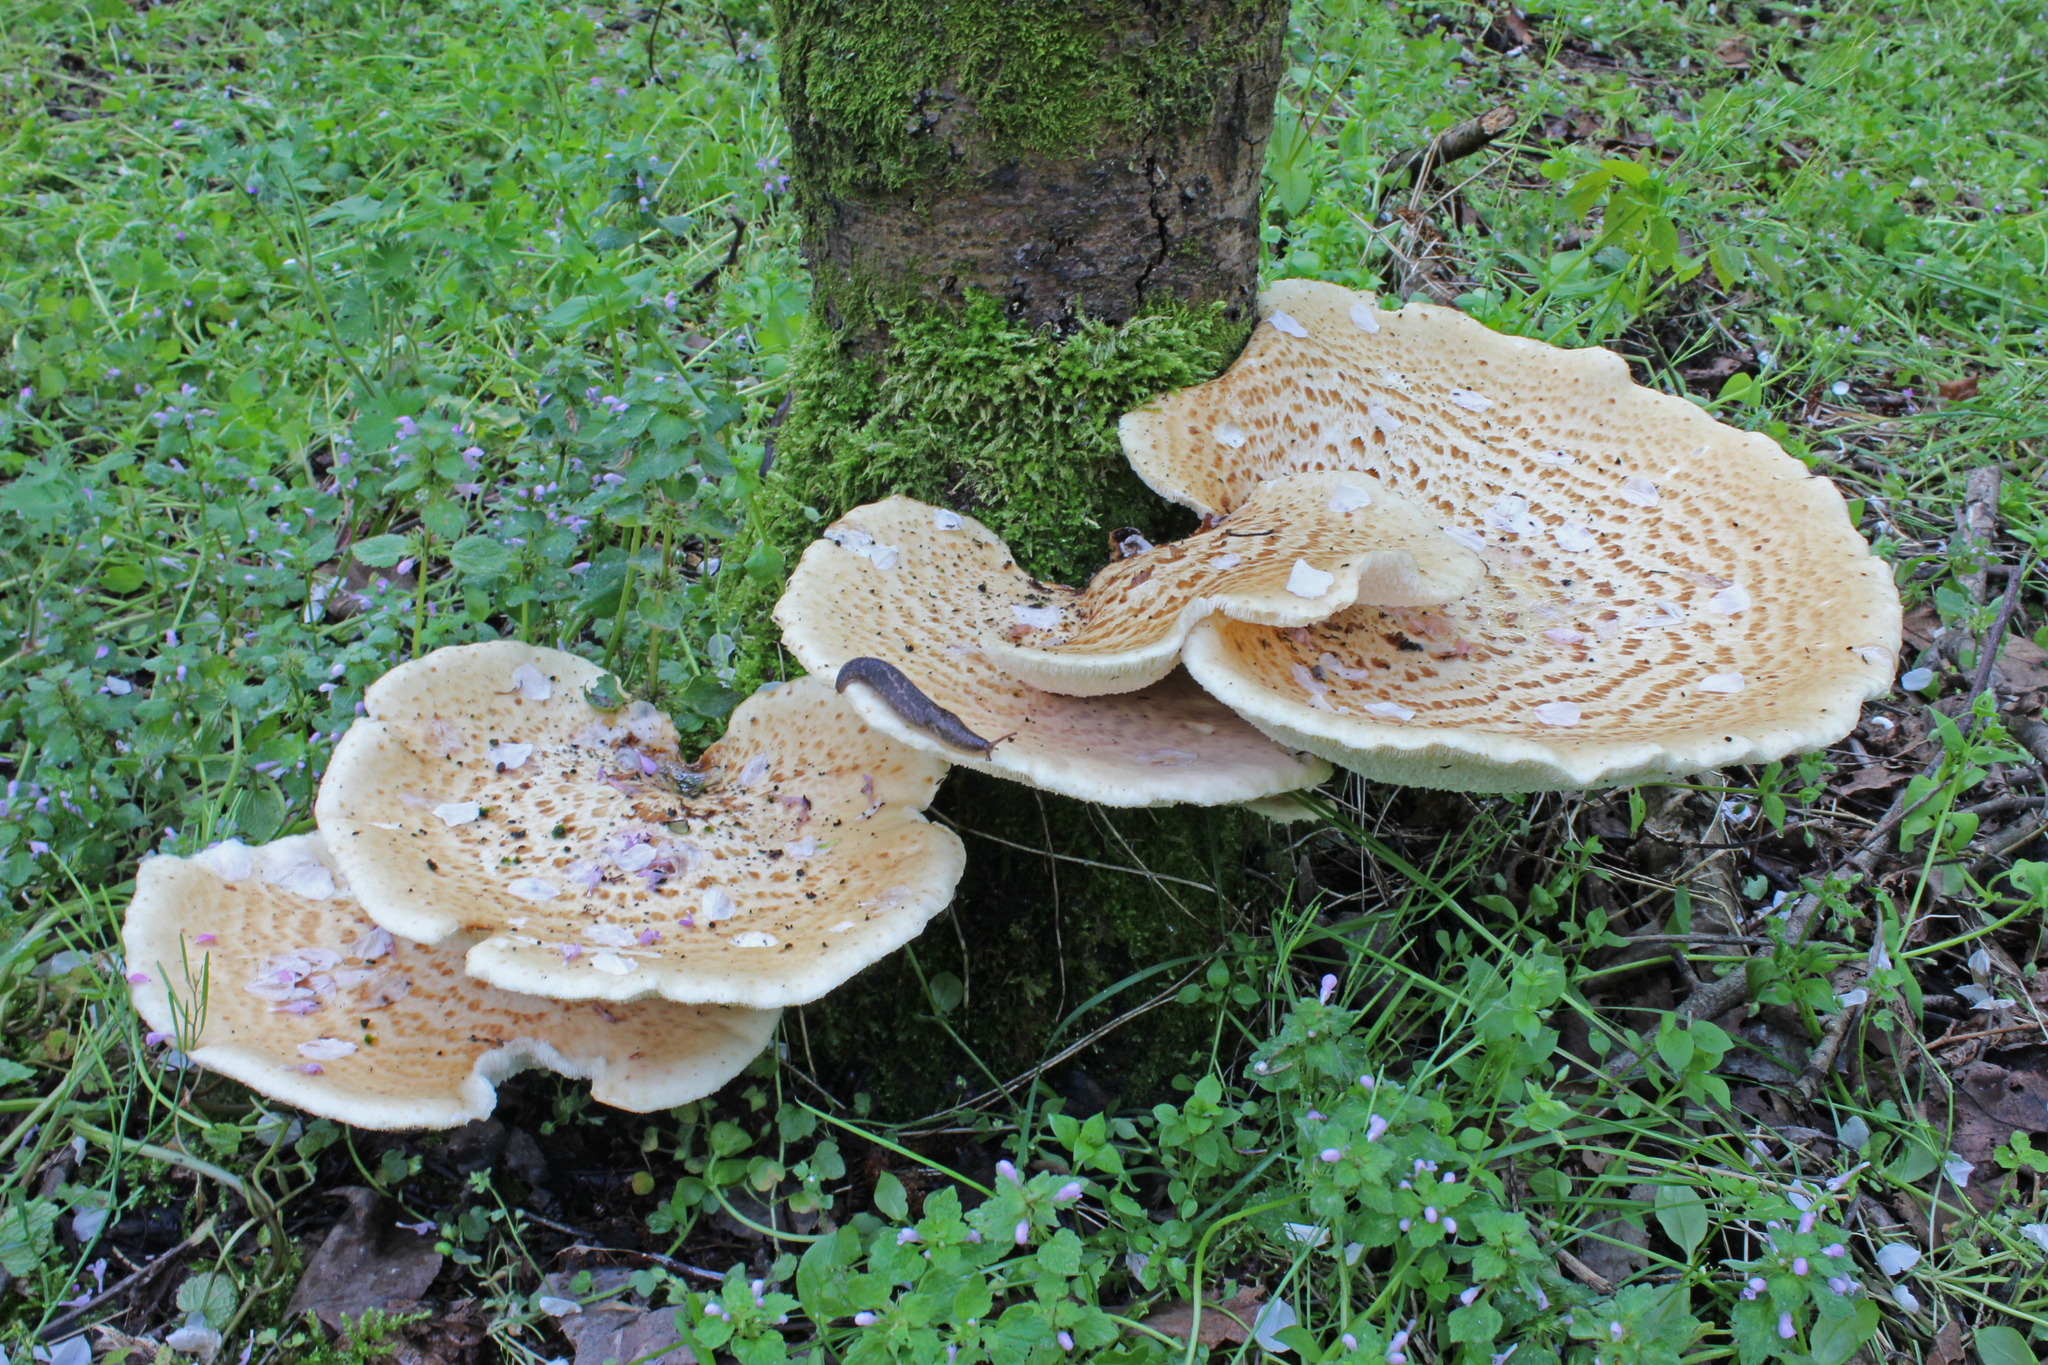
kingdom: Fungi
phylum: Basidiomycota
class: Agaricomycetes
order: Polyporales
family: Polyporaceae
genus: Cerioporus
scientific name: Cerioporus squamosus
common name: Dryad's saddle
